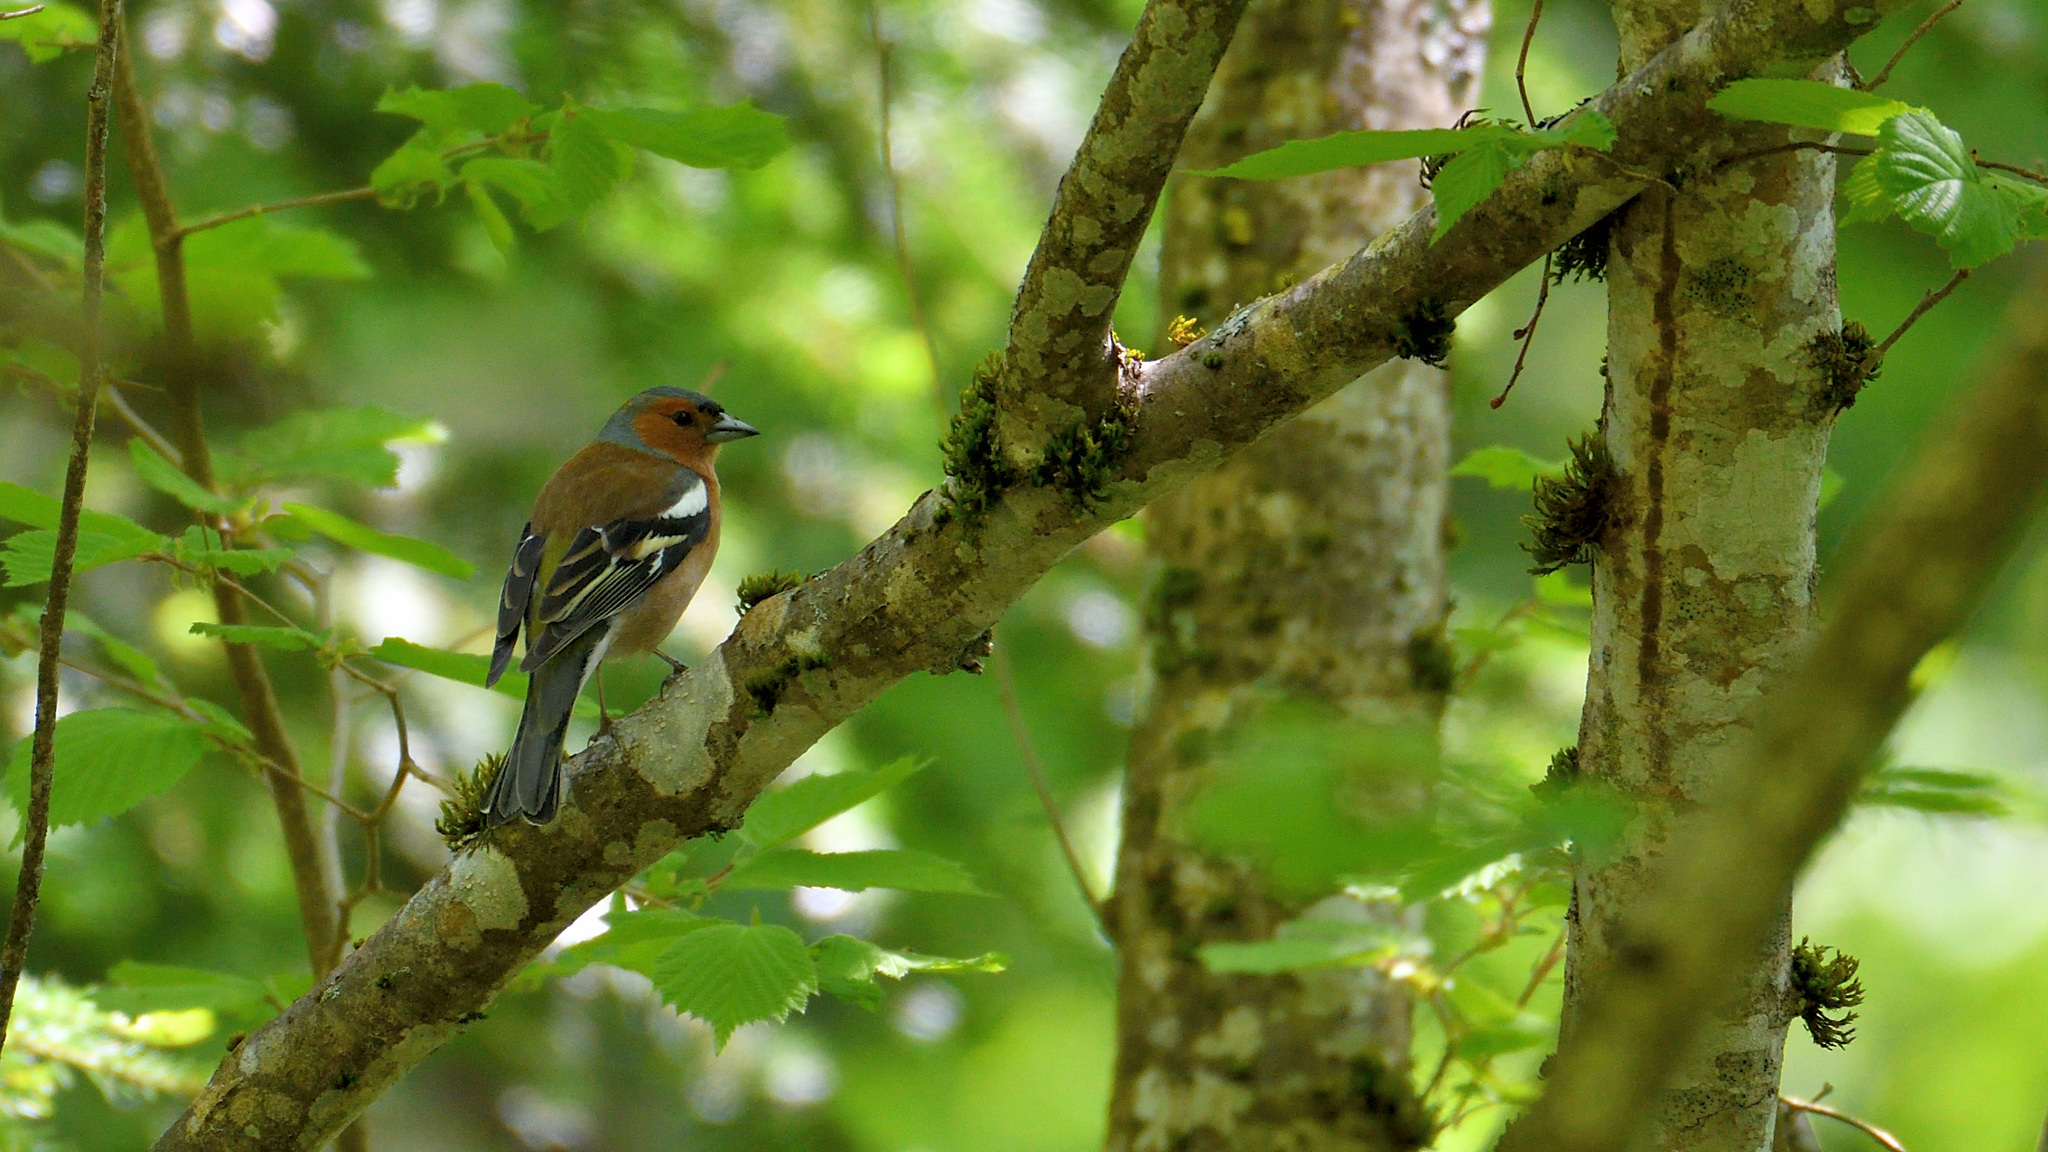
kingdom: Animalia
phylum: Chordata
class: Aves
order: Passeriformes
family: Fringillidae
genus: Fringilla
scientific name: Fringilla coelebs
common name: Common chaffinch
